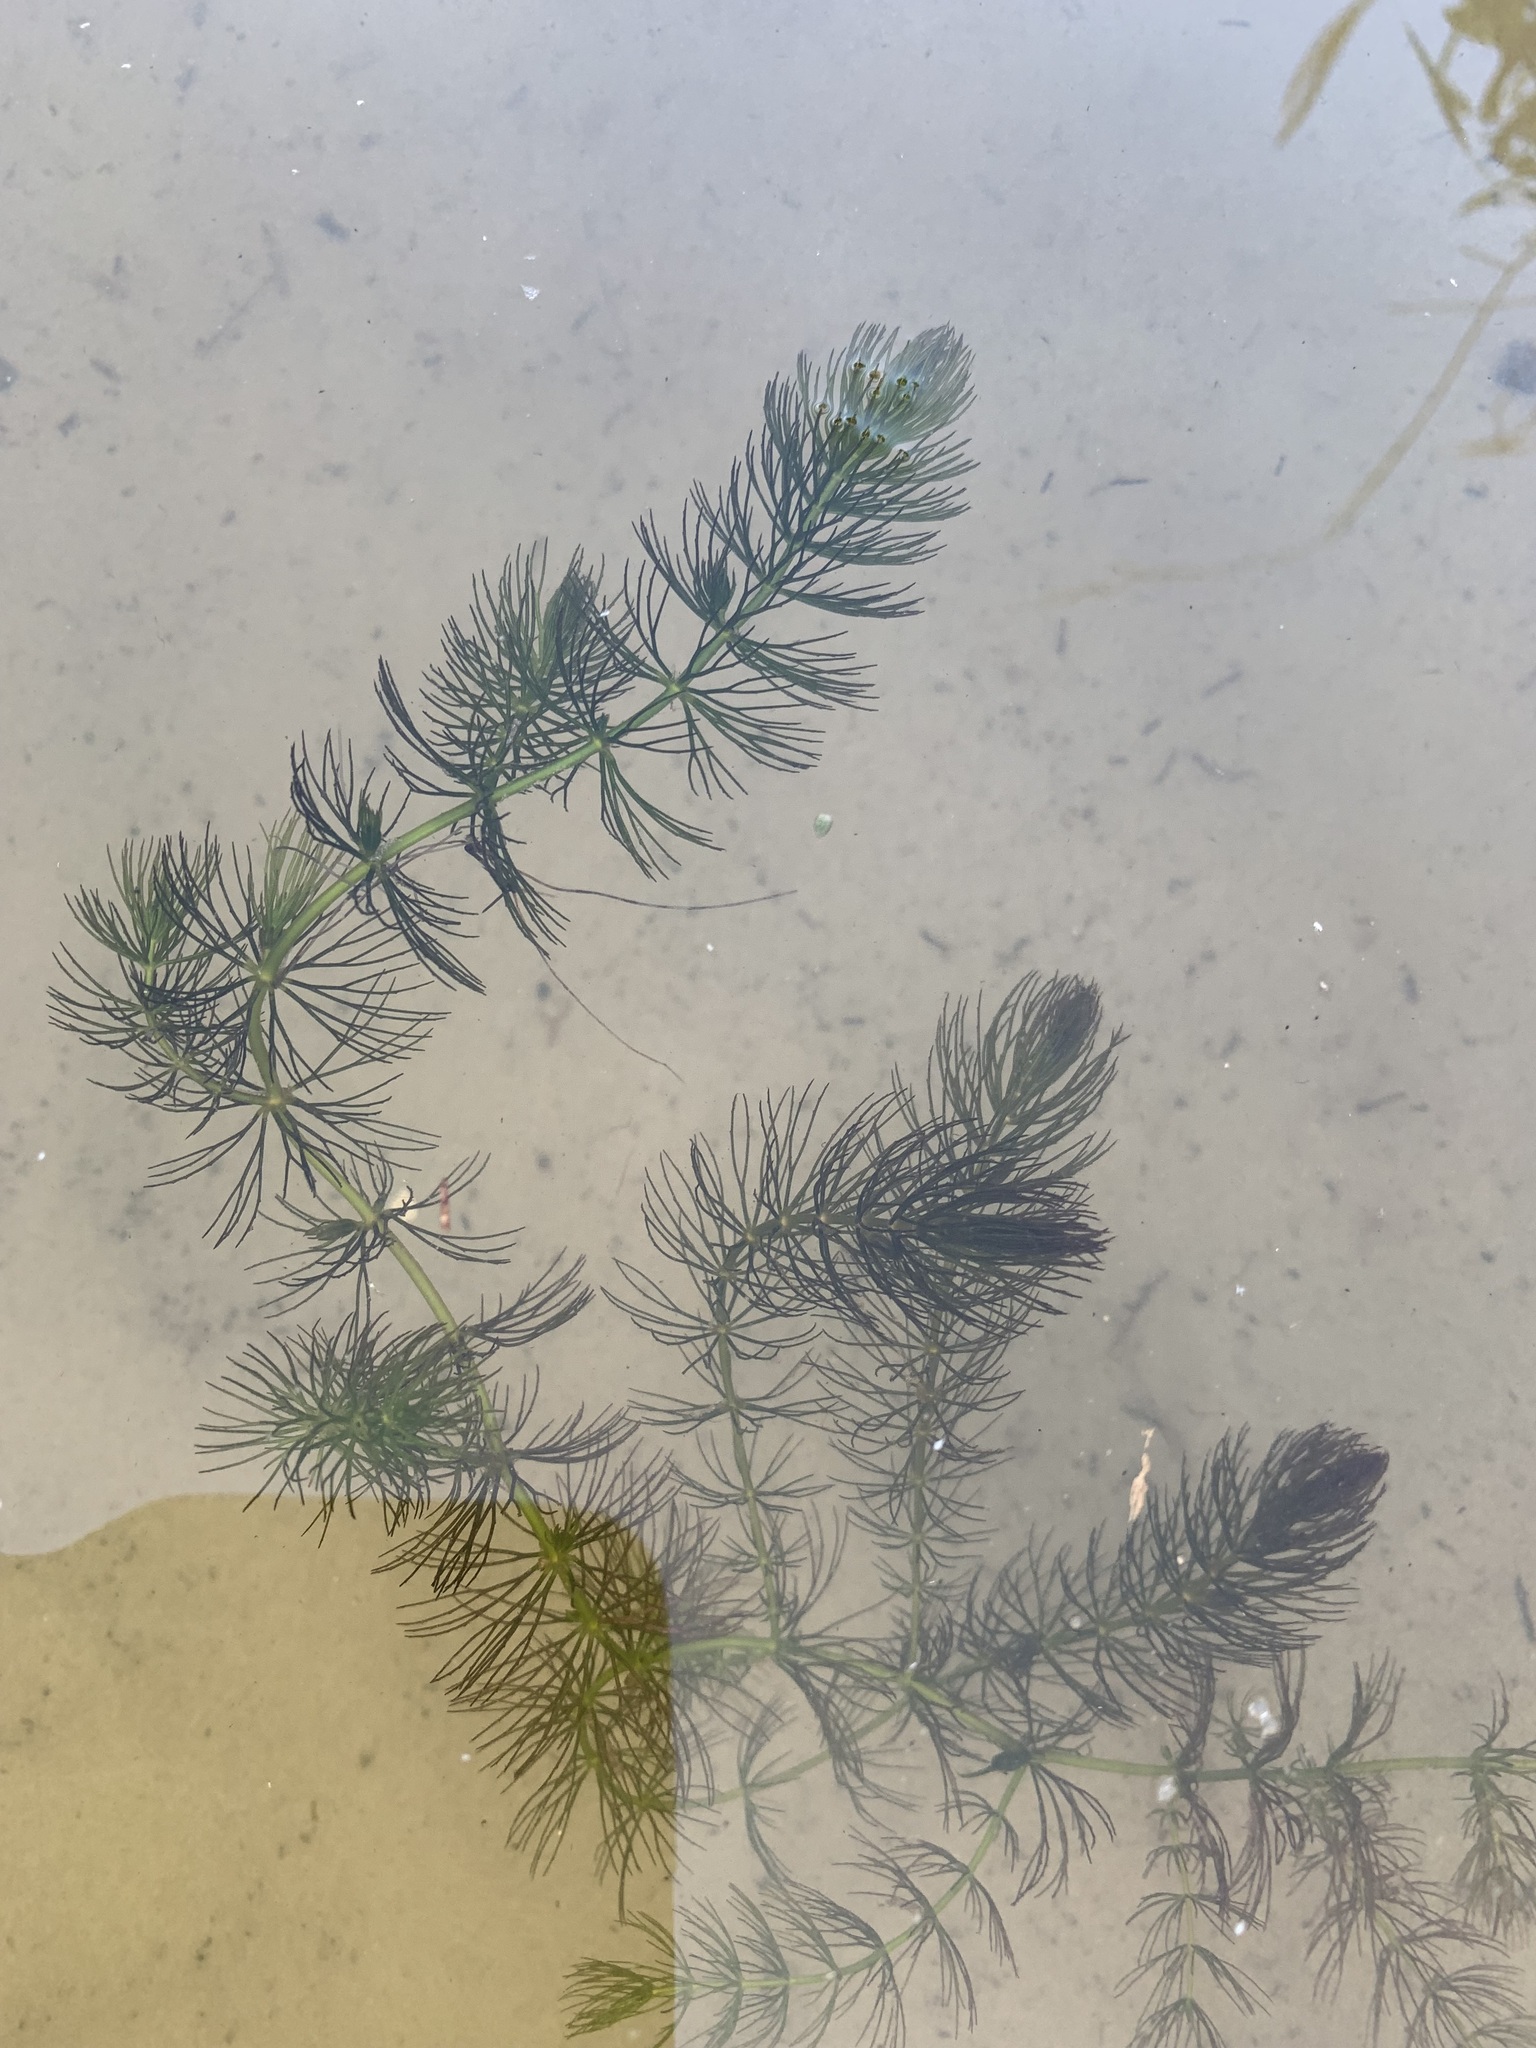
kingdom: Plantae
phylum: Tracheophyta
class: Magnoliopsida
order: Ceratophyllales
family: Ceratophyllaceae
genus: Ceratophyllum
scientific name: Ceratophyllum demersum
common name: Rigid hornwort
